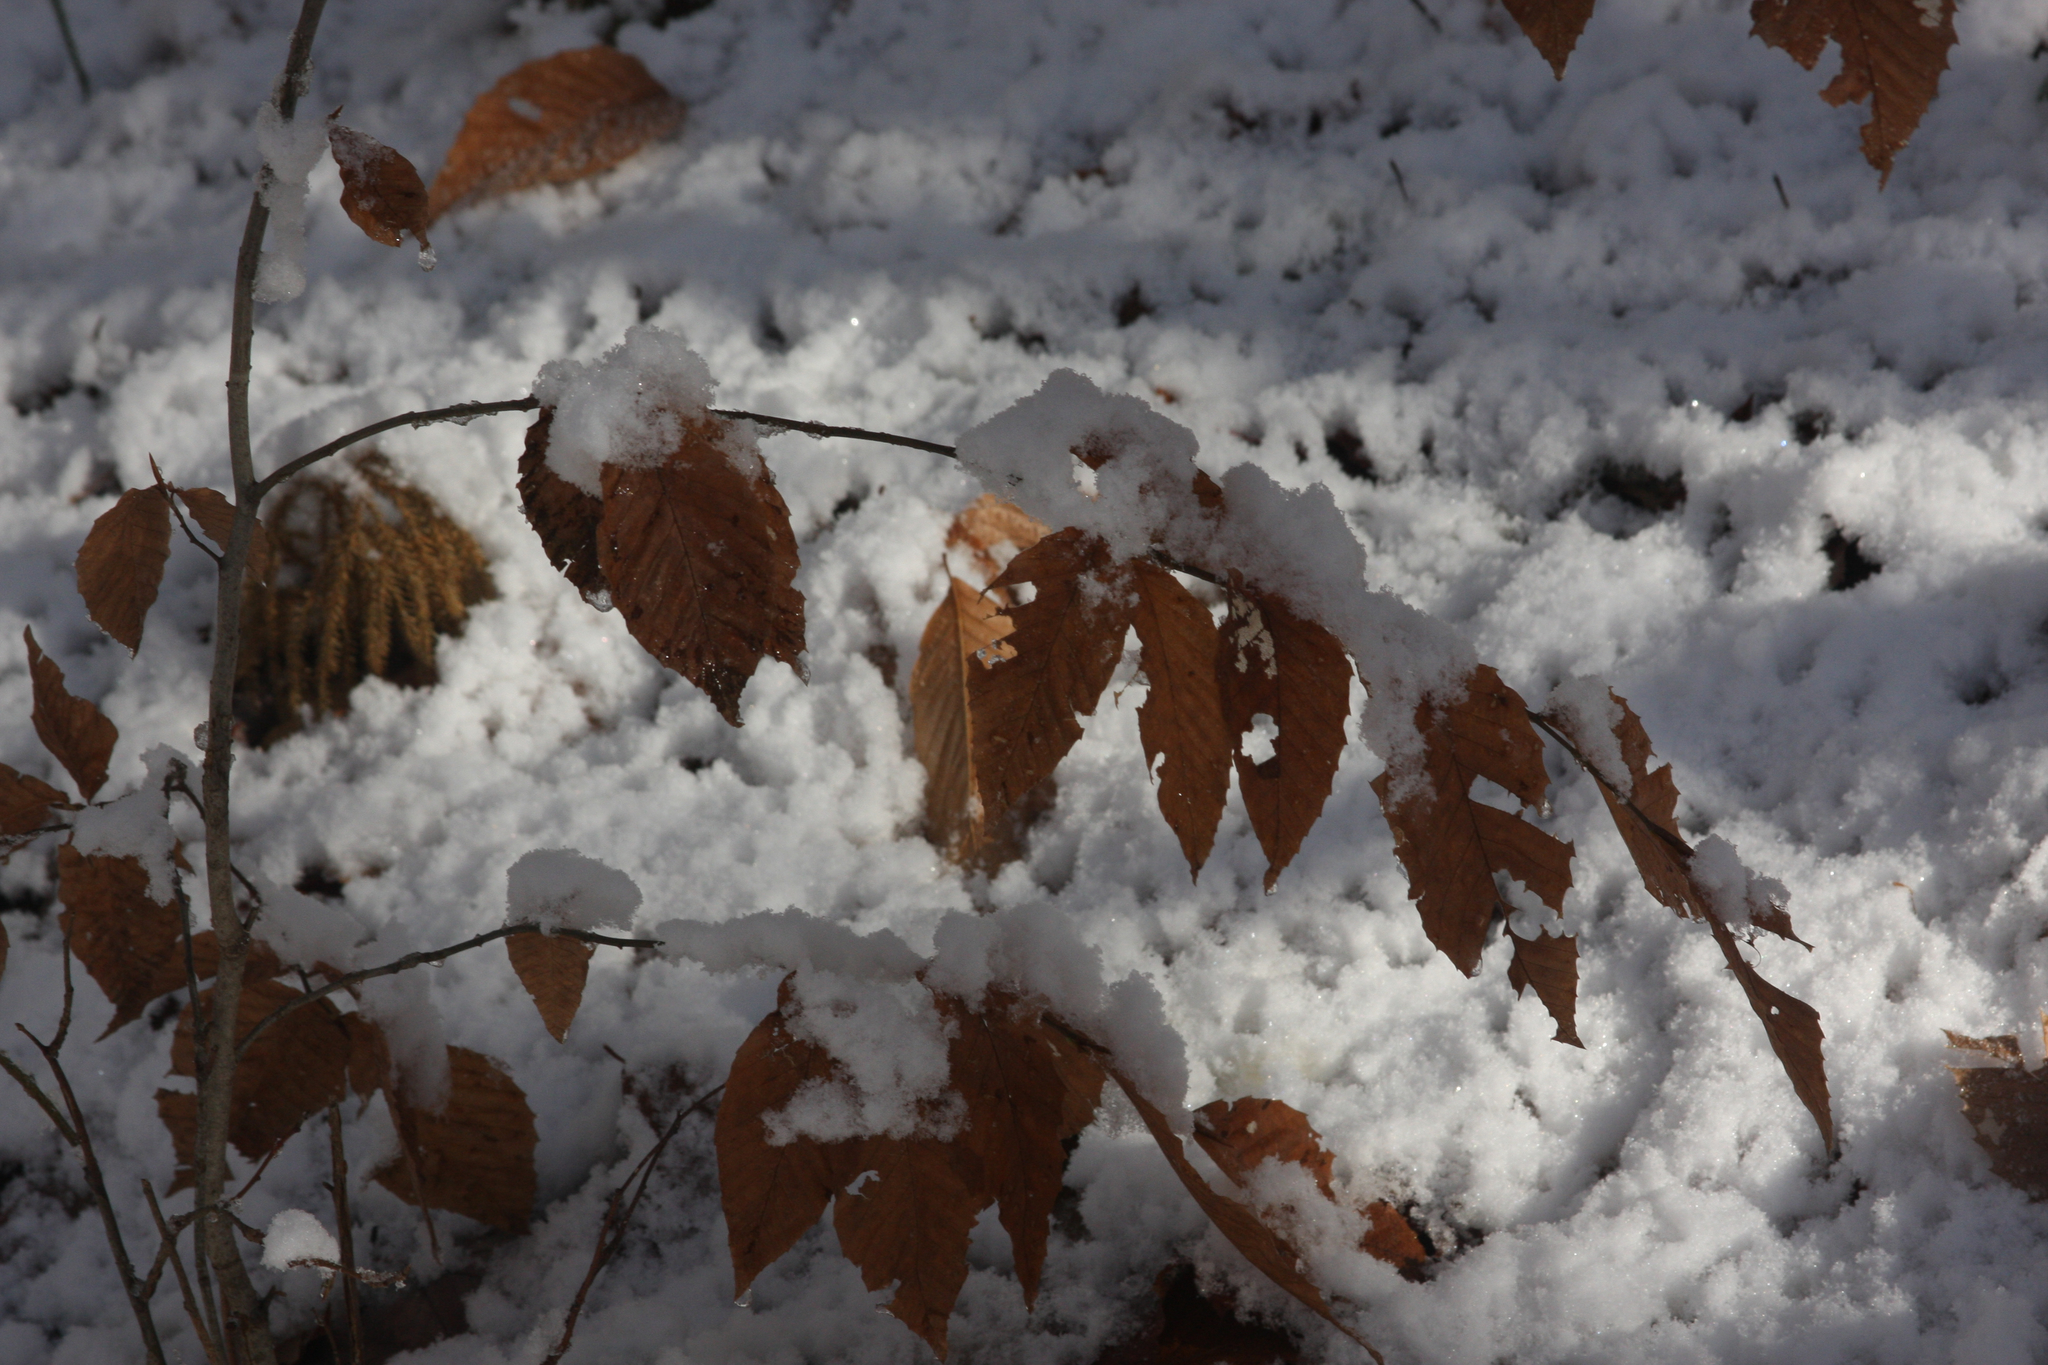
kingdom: Plantae
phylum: Tracheophyta
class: Magnoliopsida
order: Fagales
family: Fagaceae
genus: Fagus
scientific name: Fagus grandifolia
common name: American beech
